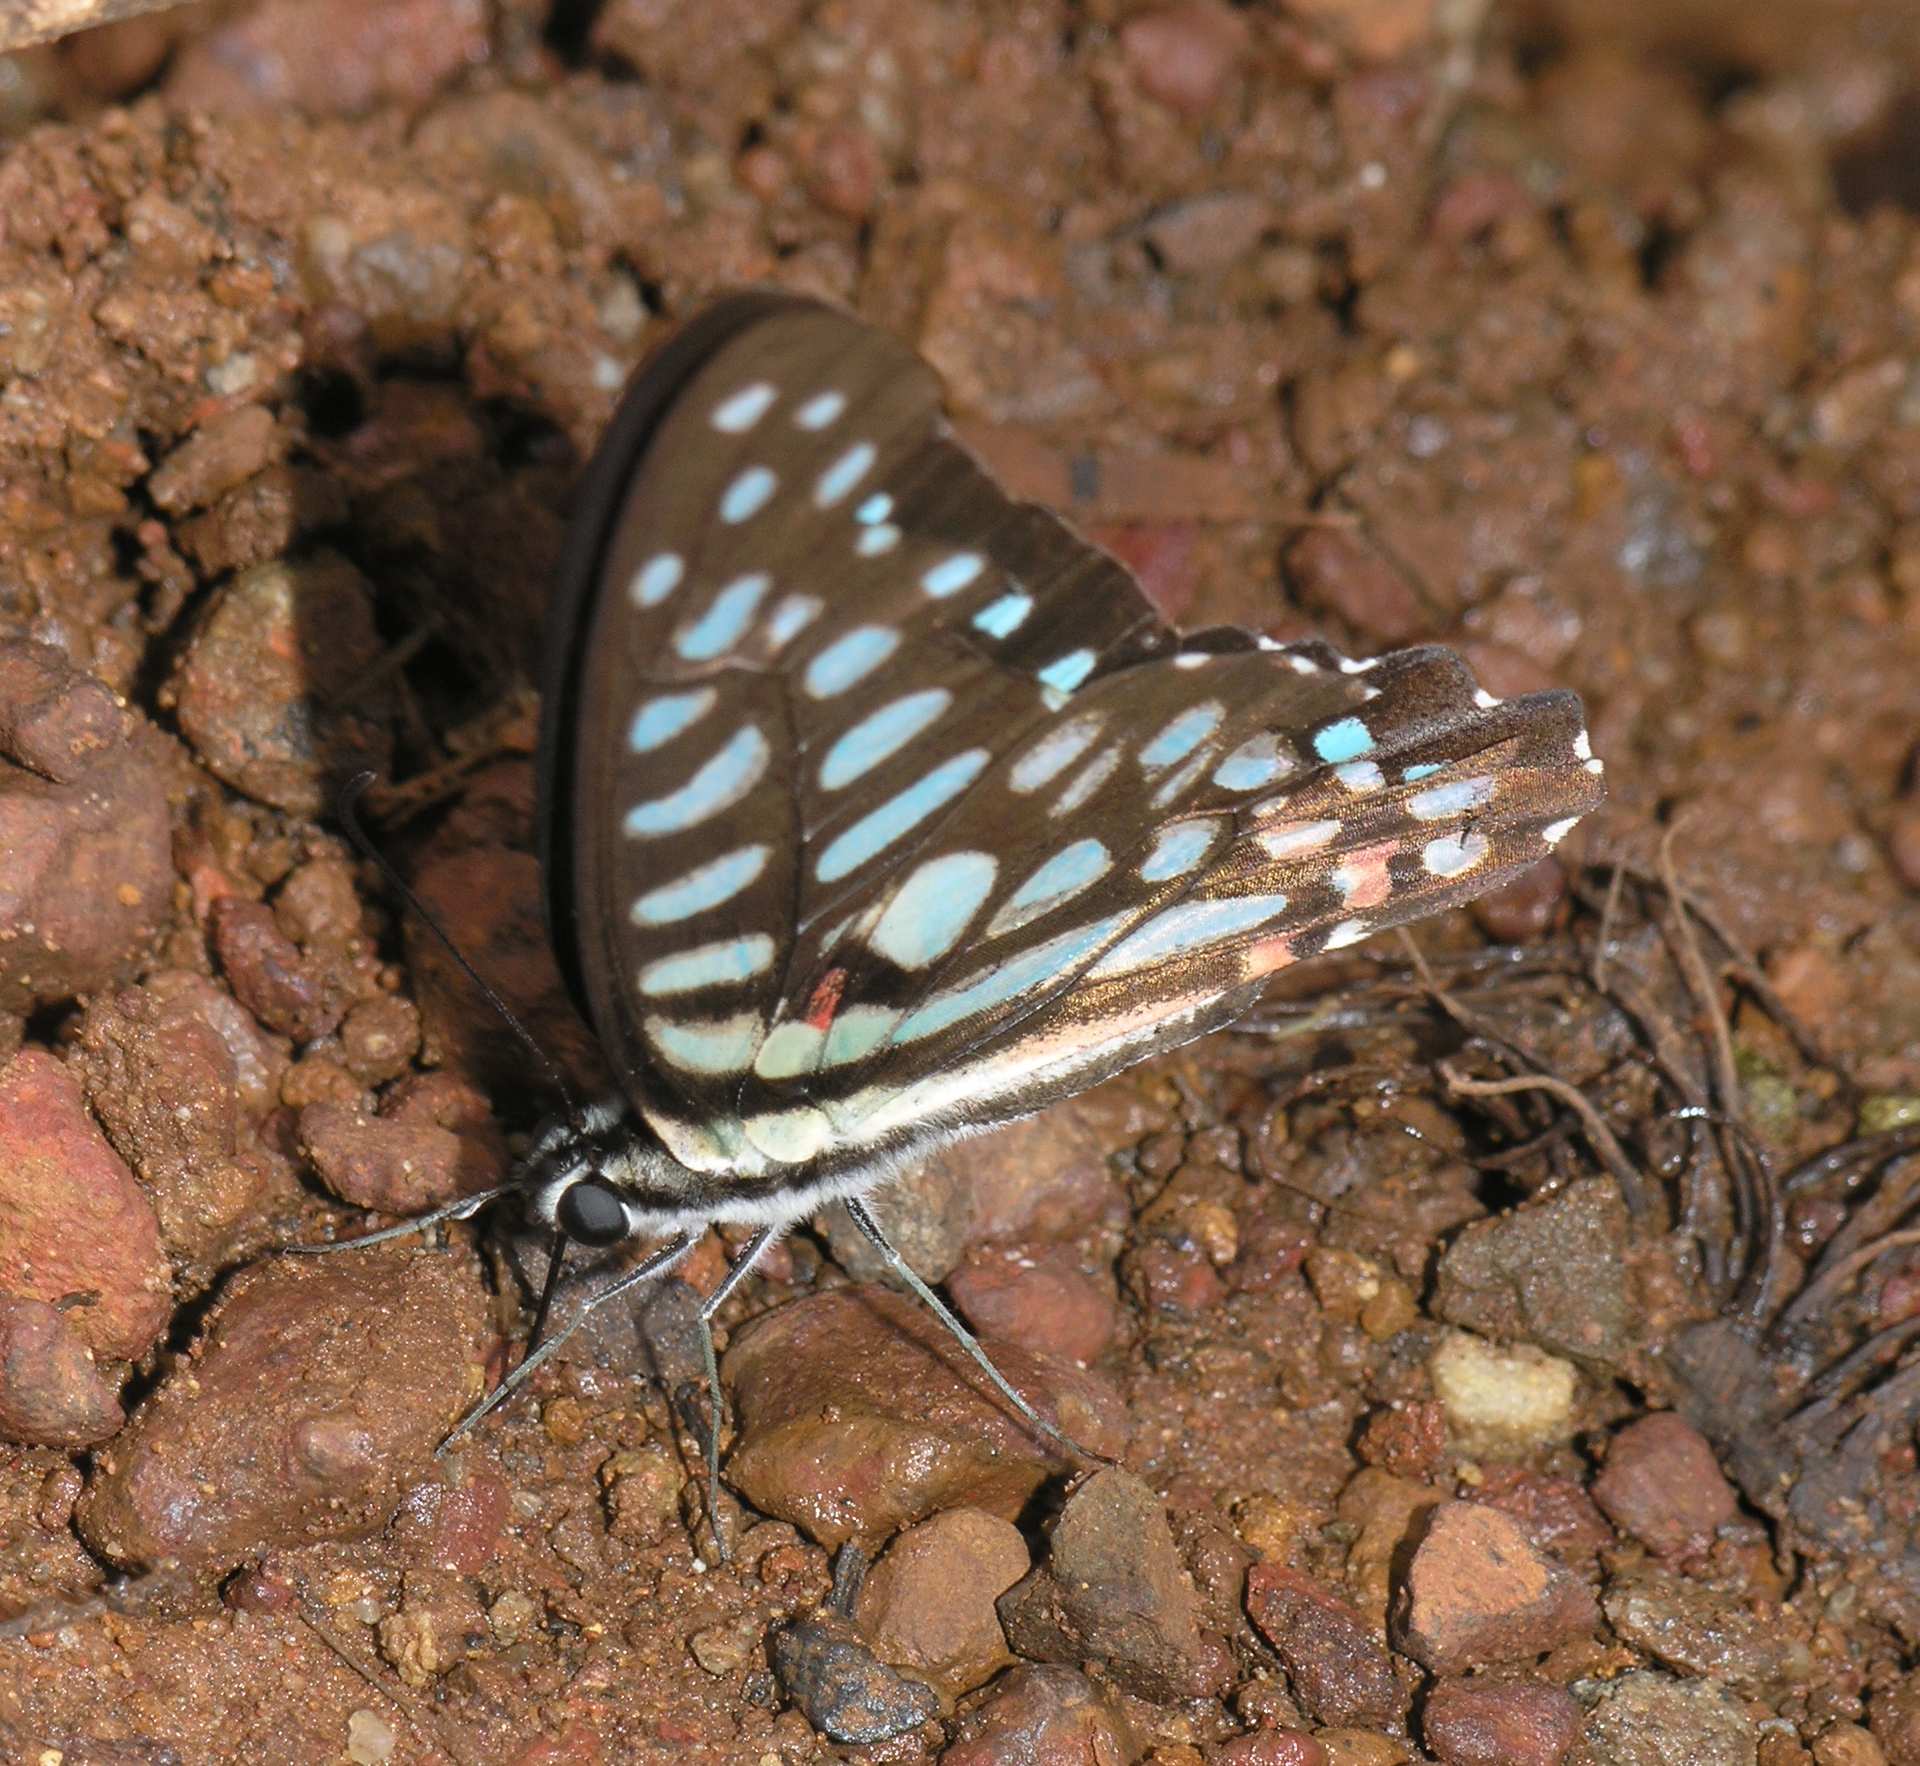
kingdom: Animalia
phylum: Arthropoda
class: Insecta
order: Lepidoptera
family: Papilionidae
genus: Graphium
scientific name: Graphium arycles
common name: Spotted jay
